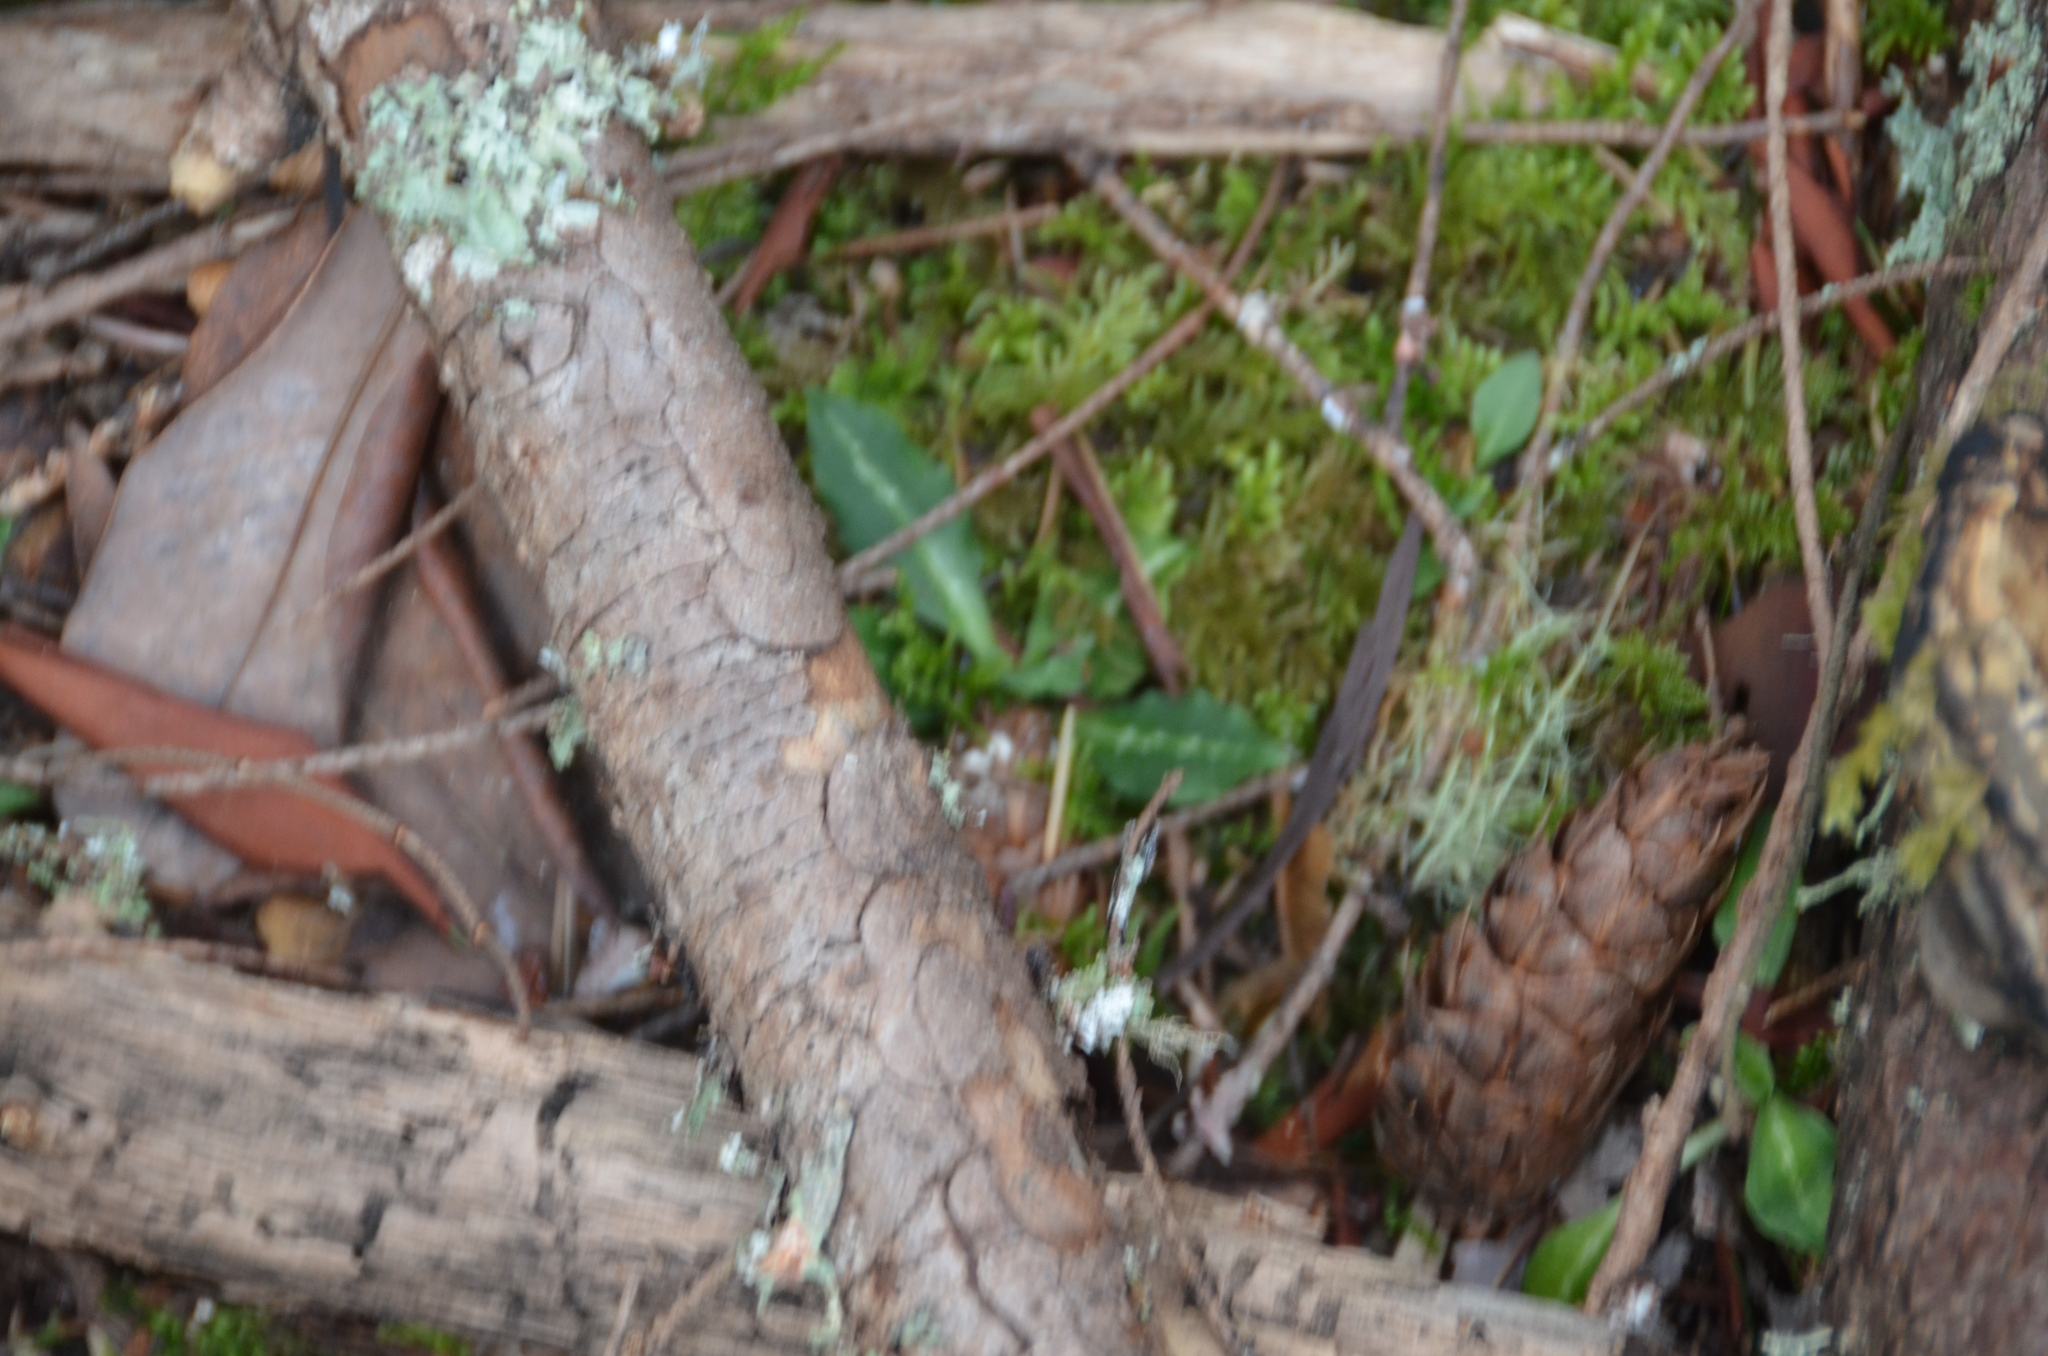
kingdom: Plantae
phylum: Tracheophyta
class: Liliopsida
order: Asparagales
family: Orchidaceae
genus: Goodyera
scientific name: Goodyera oblongifolia
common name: Giant rattlesnake-plantain
